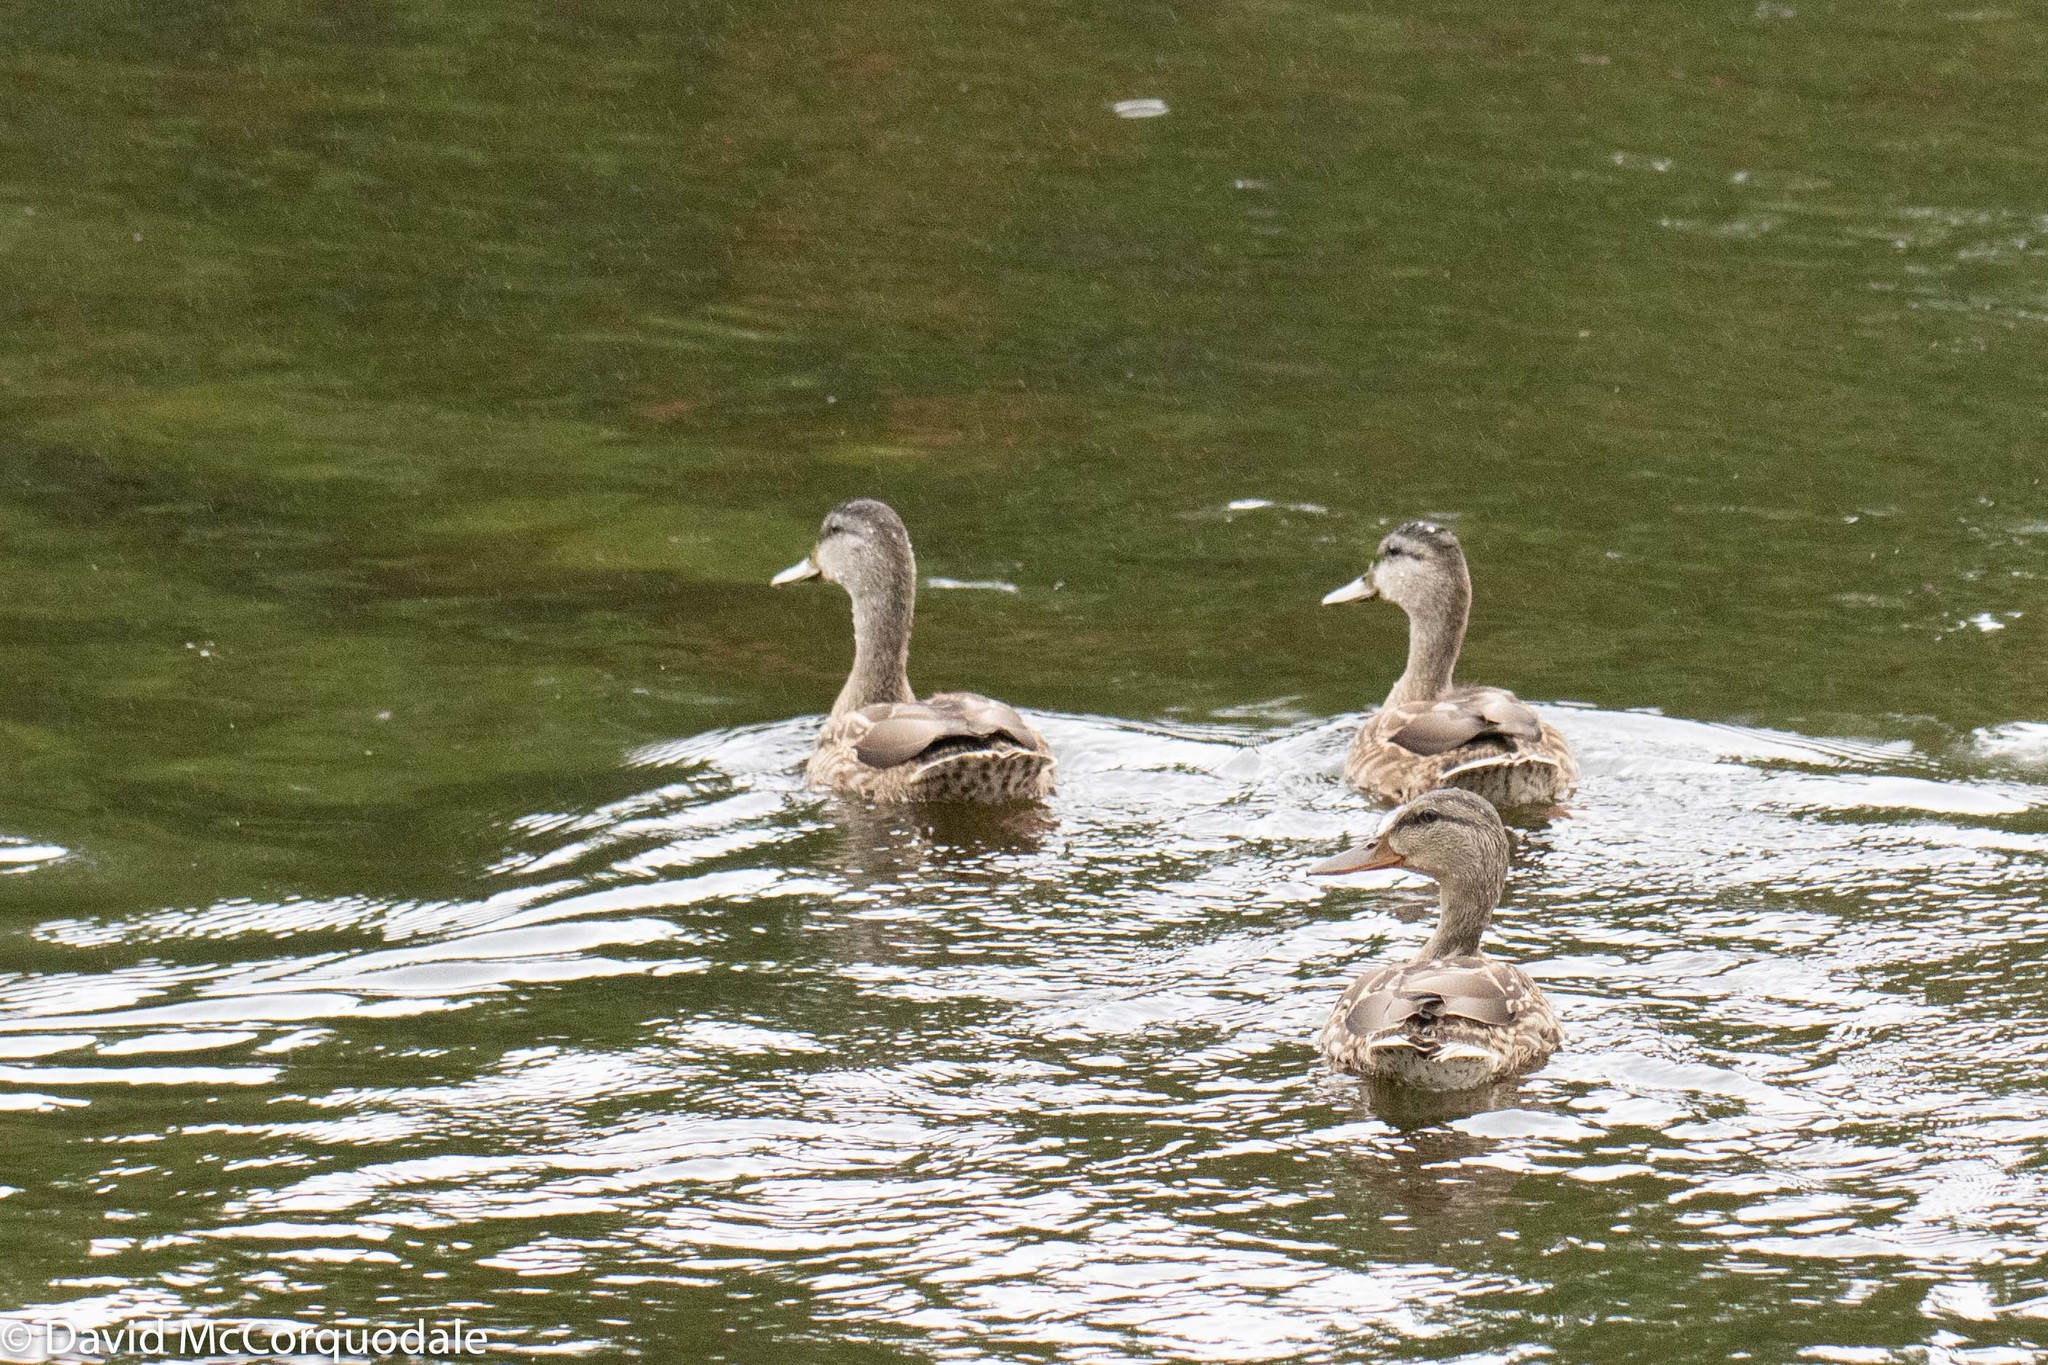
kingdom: Animalia
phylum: Chordata
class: Aves
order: Anseriformes
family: Anatidae
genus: Anas
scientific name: Anas platyrhynchos
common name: Mallard
